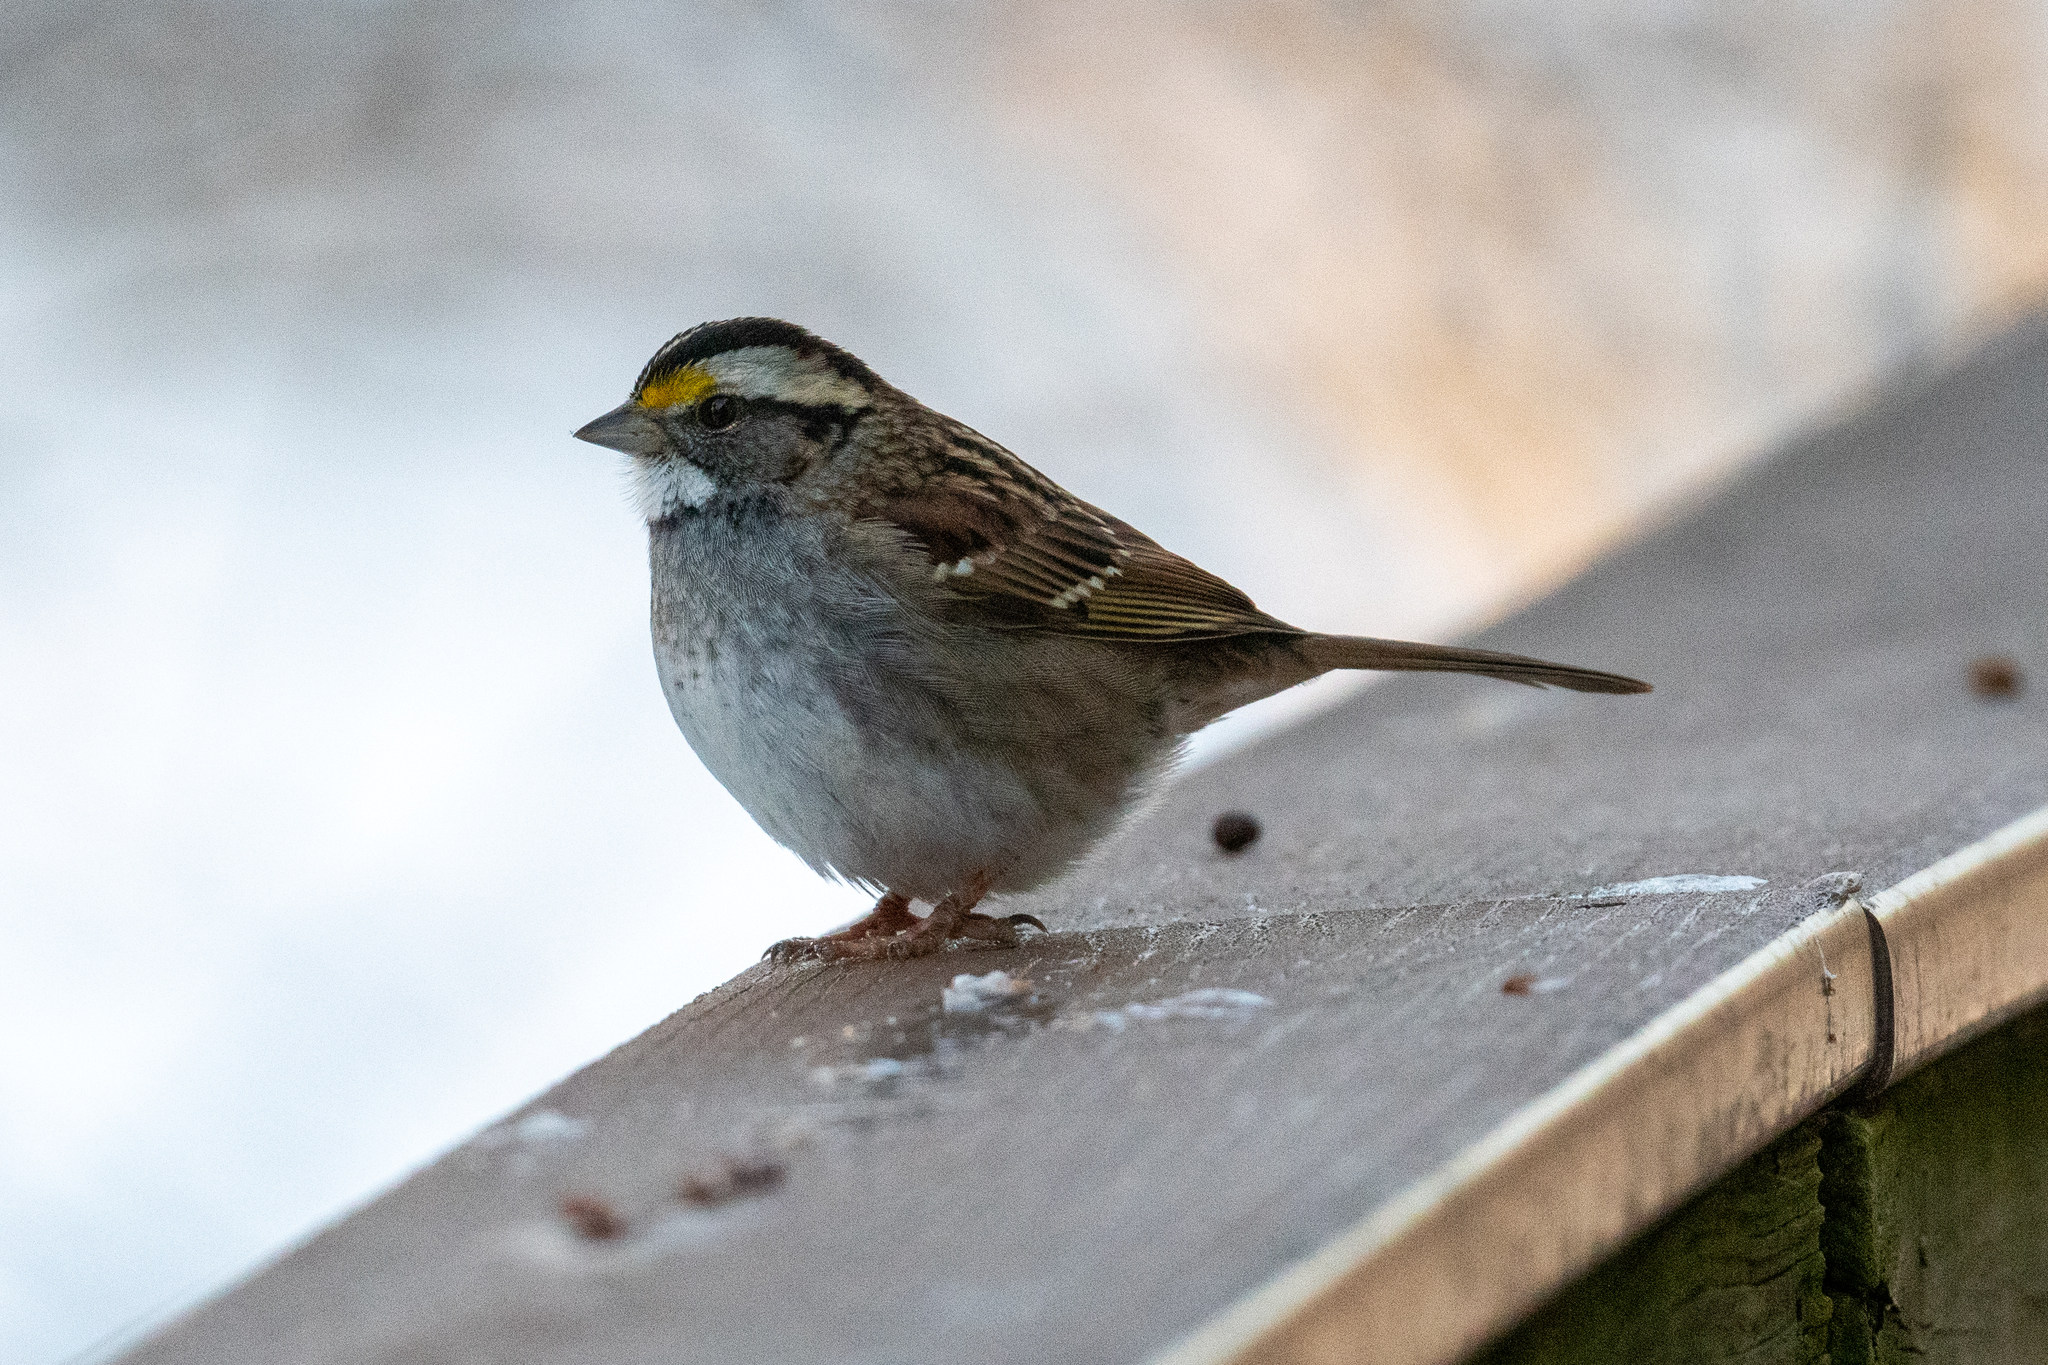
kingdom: Animalia
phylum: Chordata
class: Aves
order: Passeriformes
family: Passerellidae
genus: Zonotrichia
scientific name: Zonotrichia albicollis
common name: White-throated sparrow
